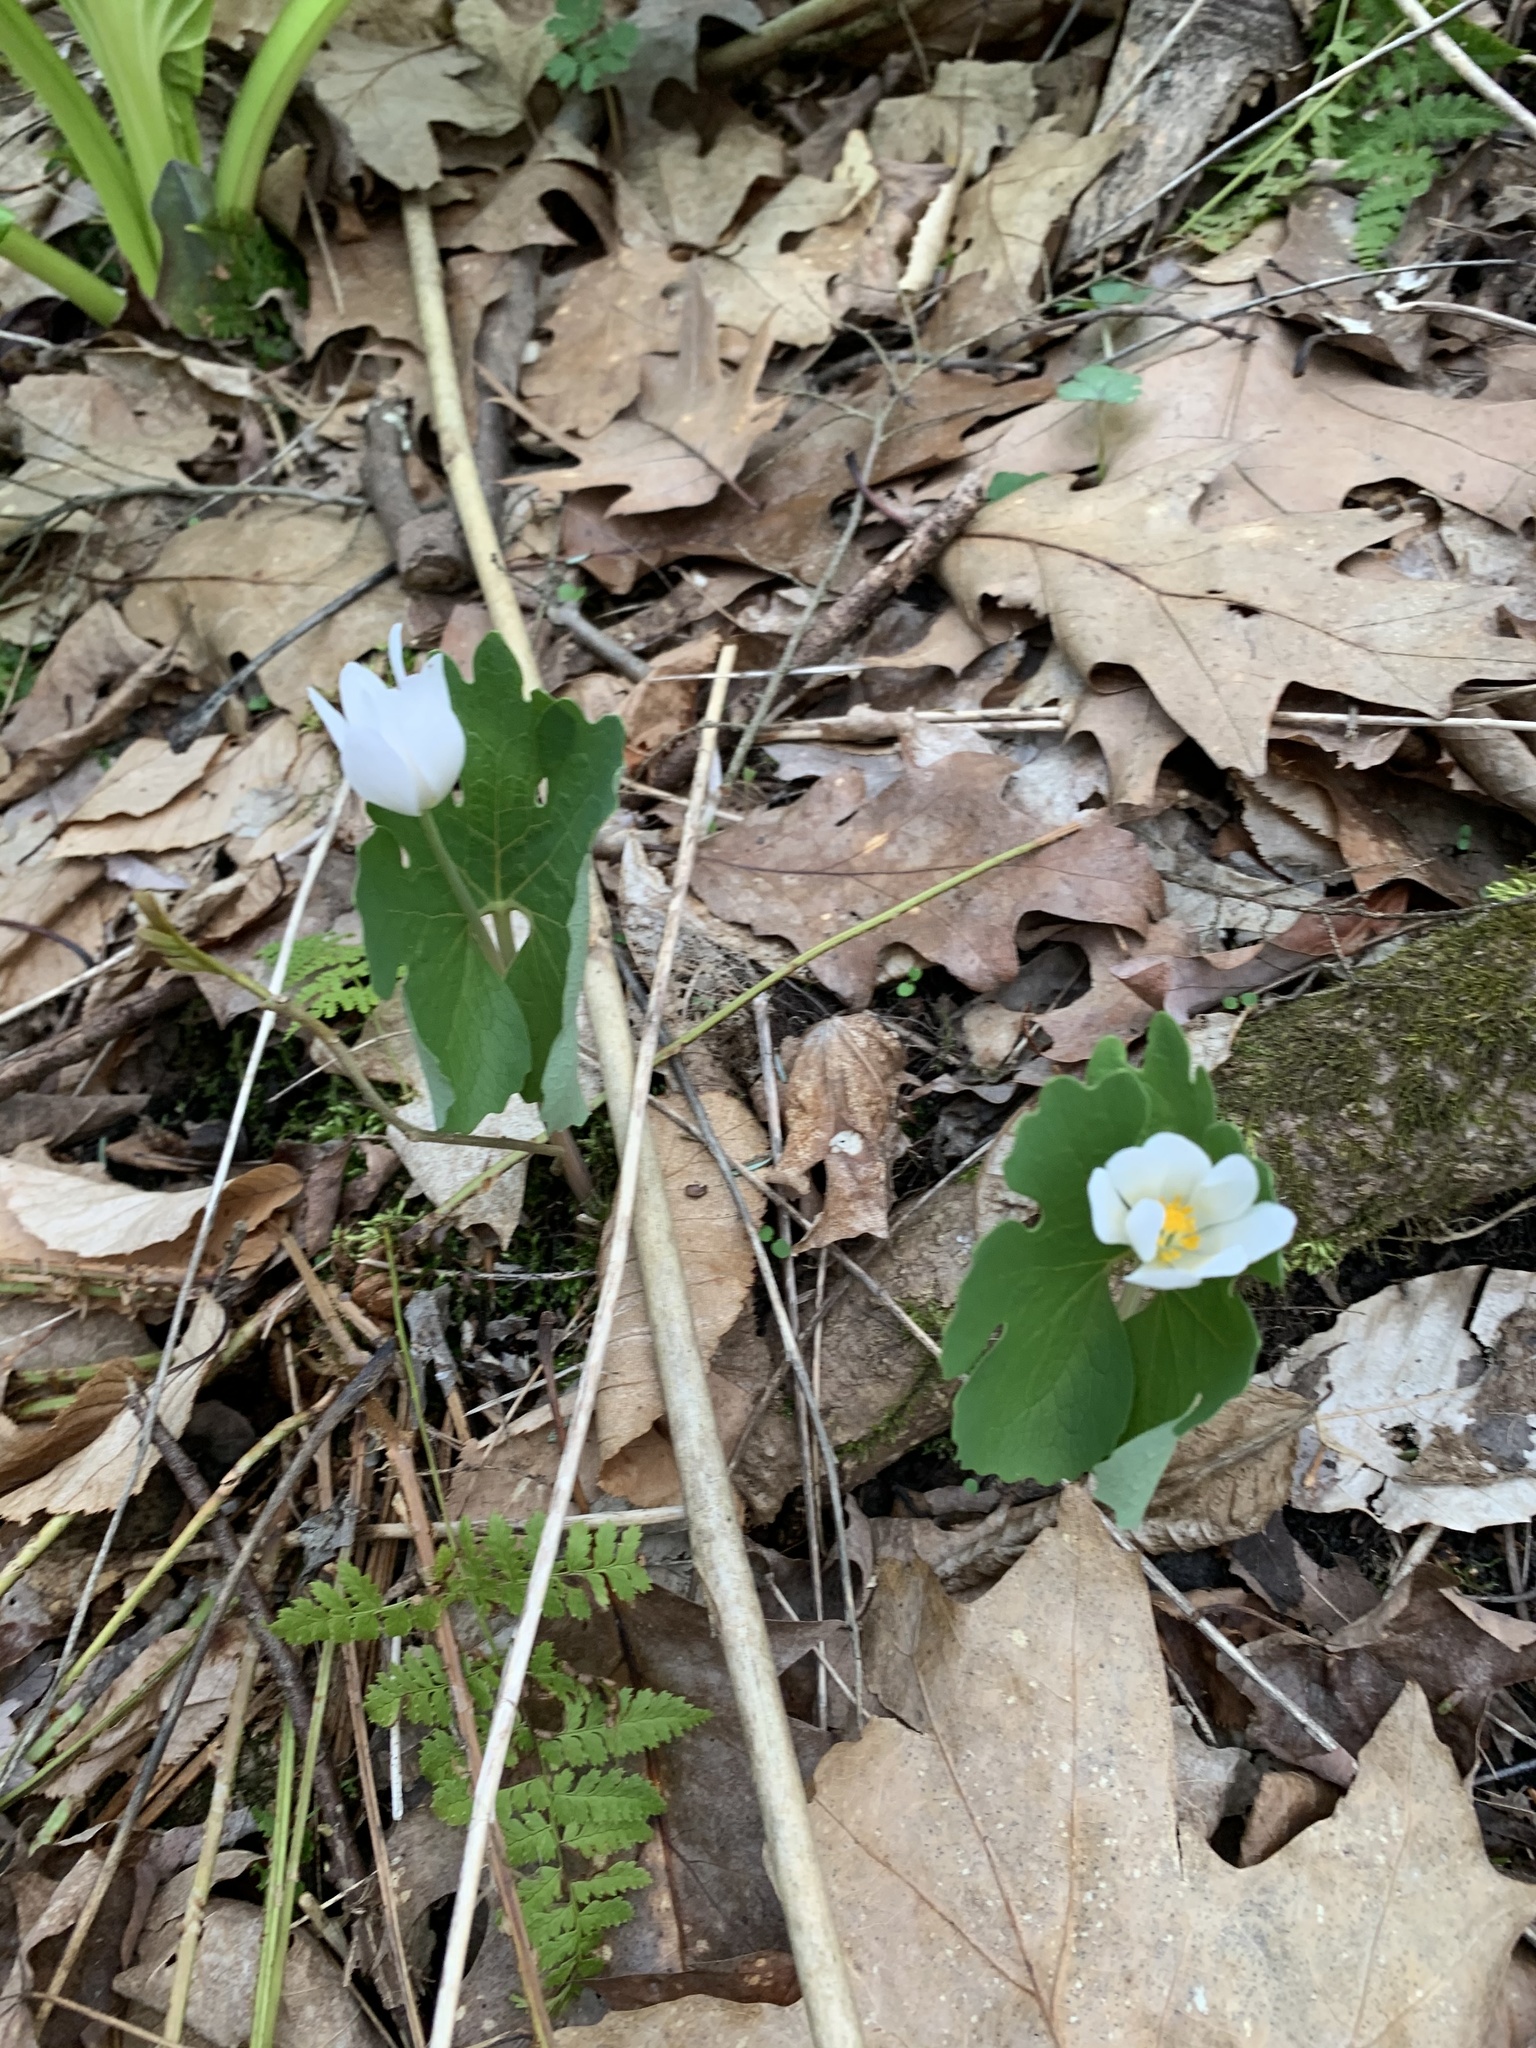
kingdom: Plantae
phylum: Tracheophyta
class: Magnoliopsida
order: Ranunculales
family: Papaveraceae
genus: Sanguinaria
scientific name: Sanguinaria canadensis
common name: Bloodroot
